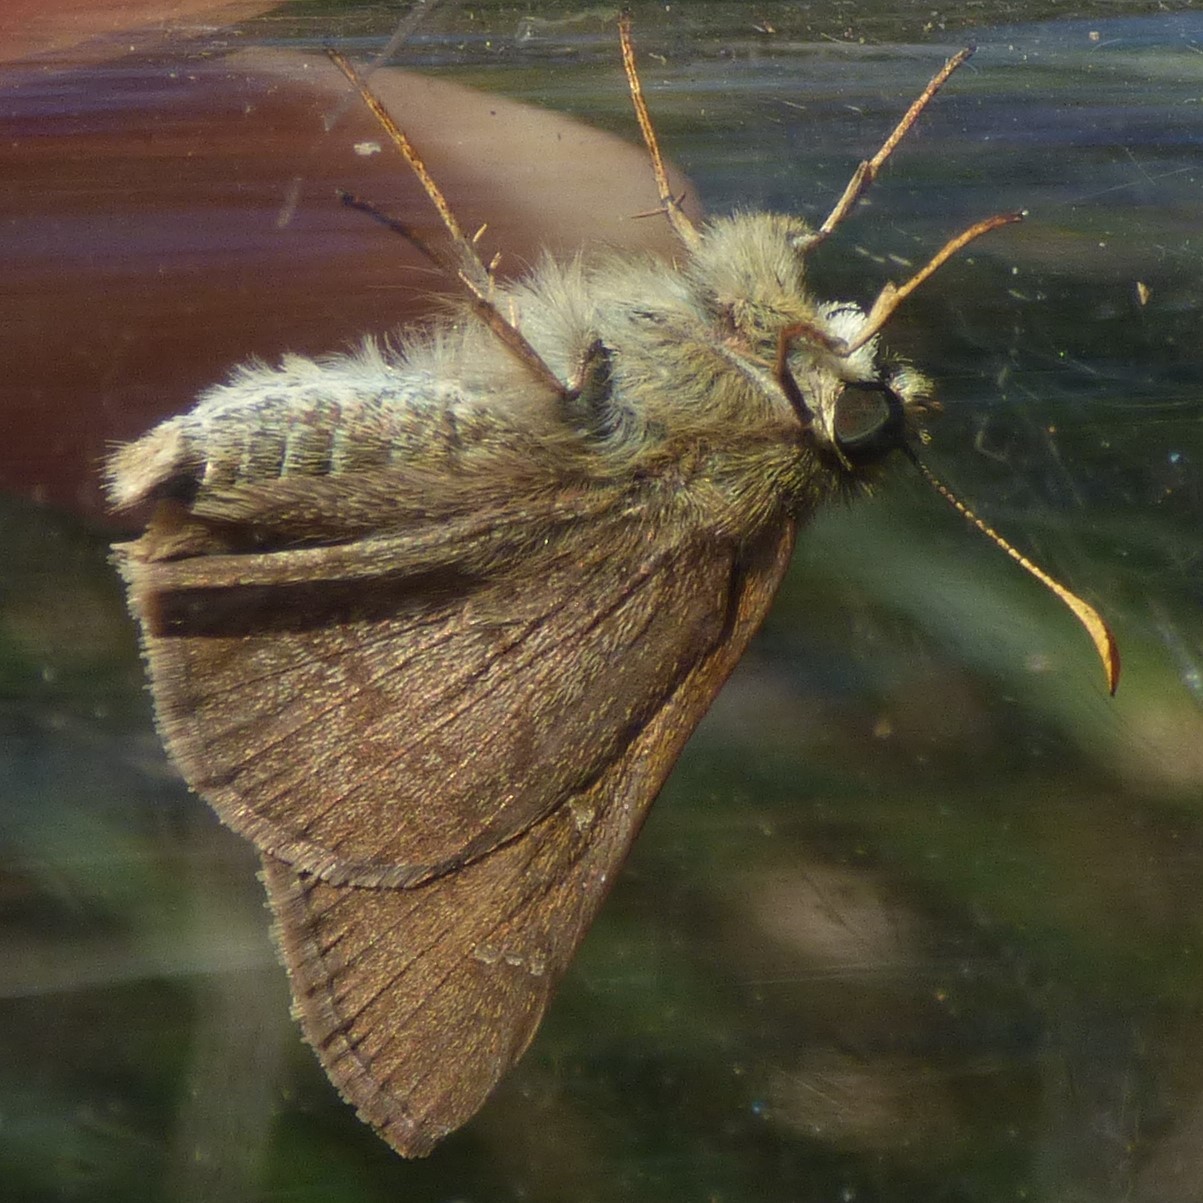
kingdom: Animalia
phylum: Arthropoda
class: Insecta
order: Lepidoptera
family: Hesperiidae
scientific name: Hesperiidae
